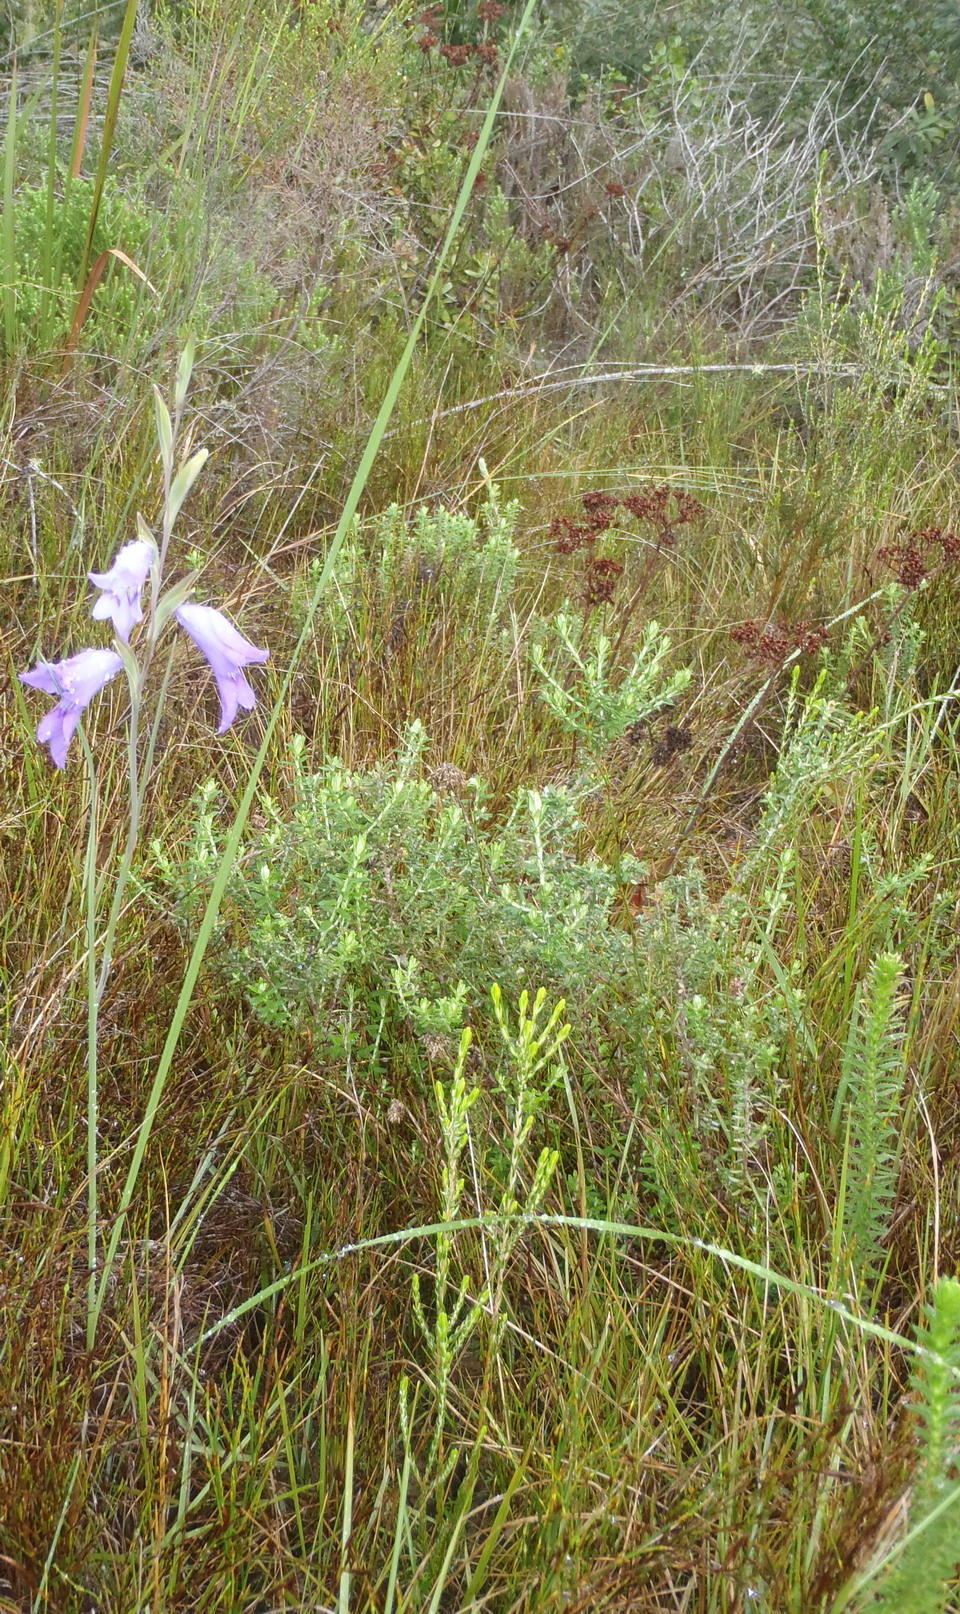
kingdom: Plantae
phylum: Tracheophyta
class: Liliopsida
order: Asparagales
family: Iridaceae
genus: Gladiolus
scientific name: Gladiolus carinatus
